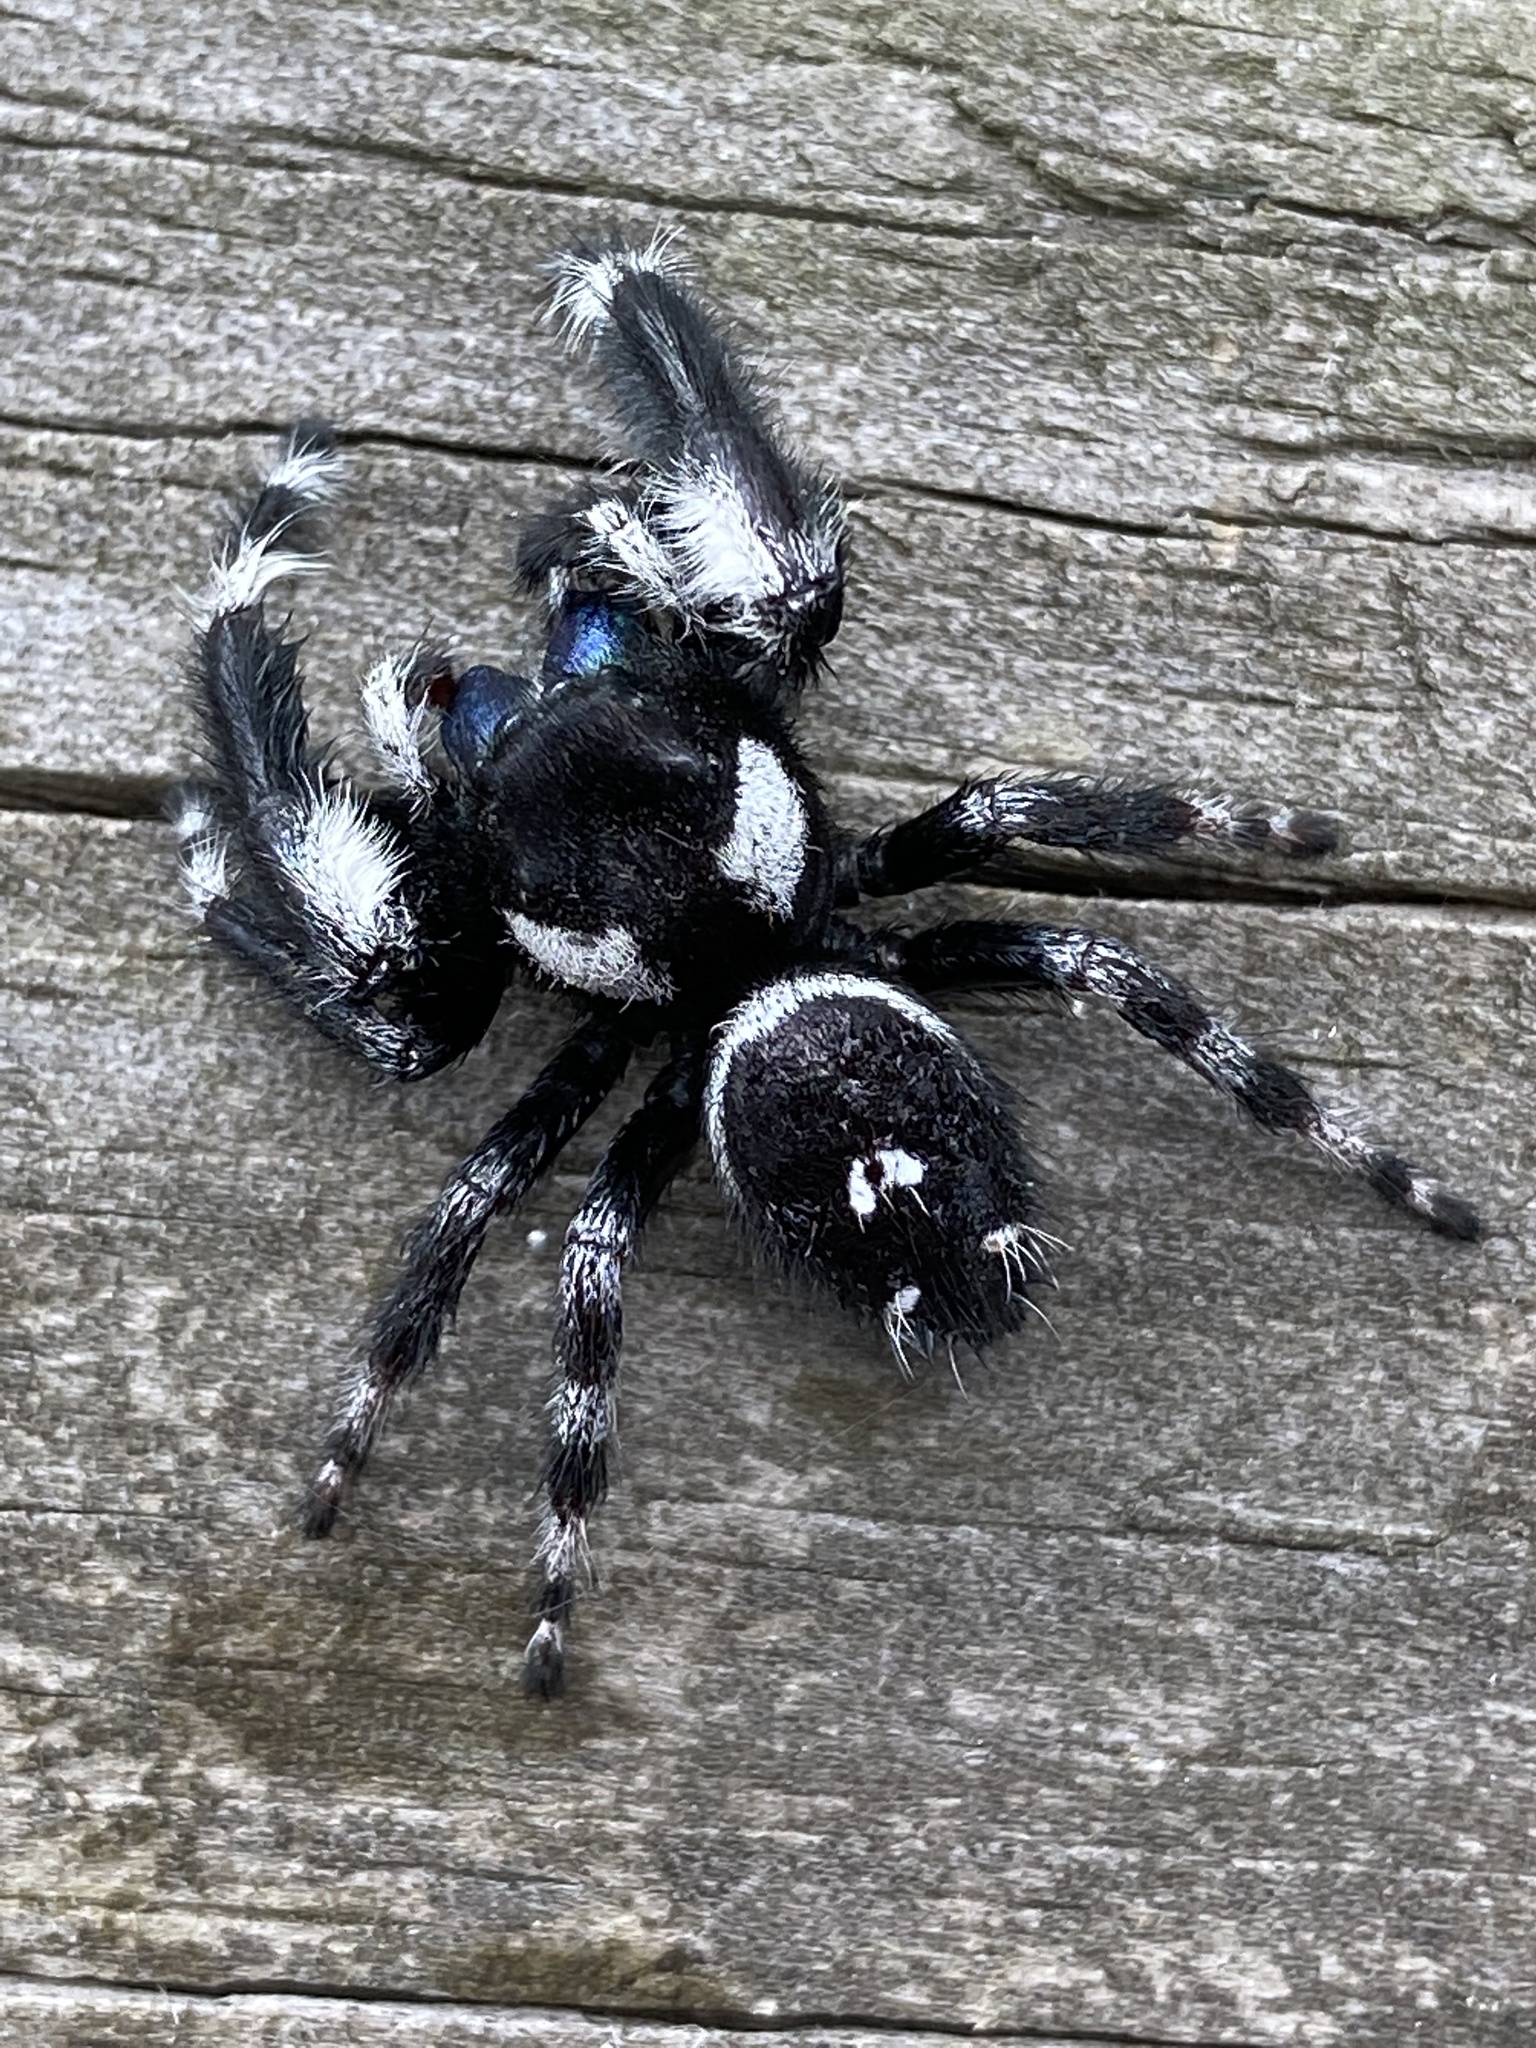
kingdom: Animalia
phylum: Arthropoda
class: Arachnida
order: Araneae
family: Salticidae
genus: Phidippus
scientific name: Phidippus audax
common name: Bold jumper
